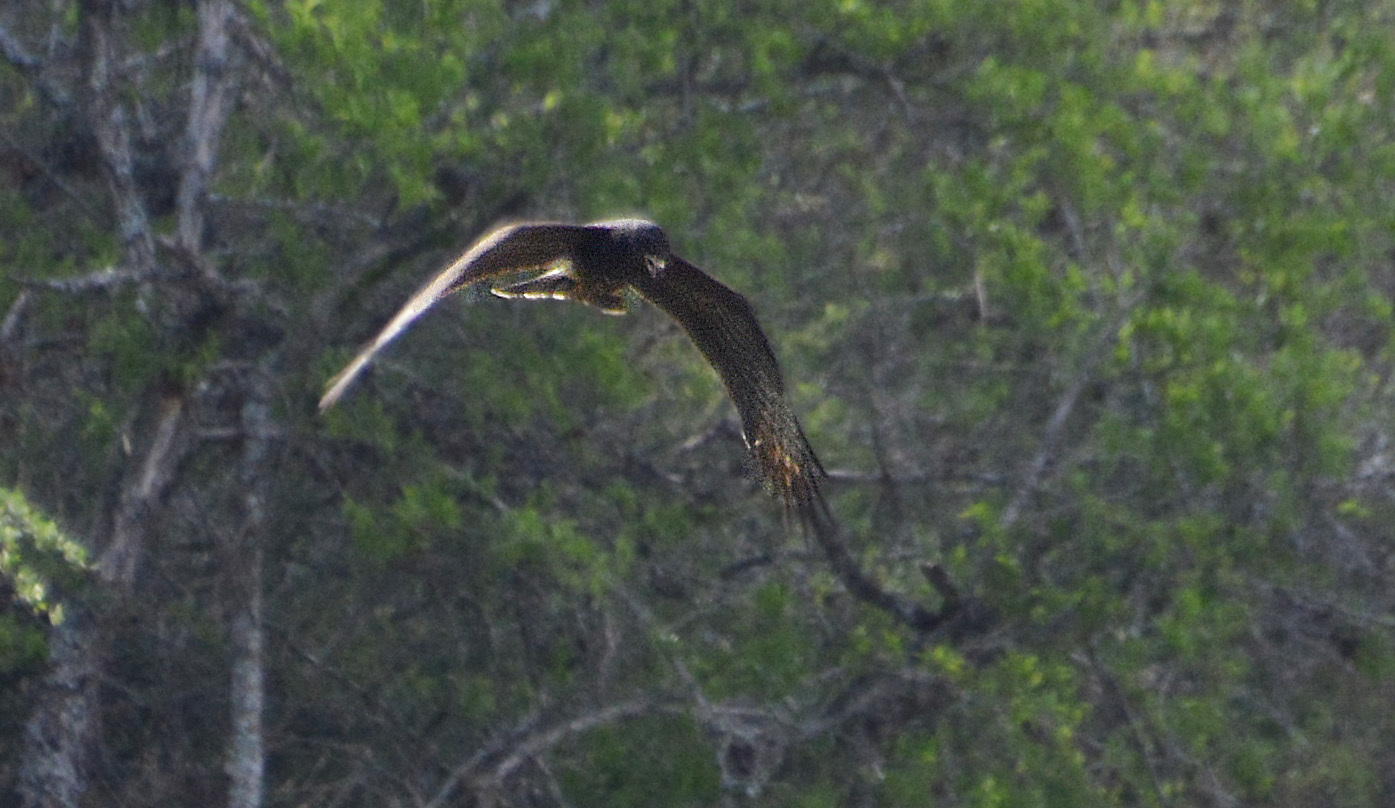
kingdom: Animalia
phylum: Chordata
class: Aves
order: Accipitriformes
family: Accipitridae
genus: Rostrhamus
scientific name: Rostrhamus sociabilis
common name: Snail kite
